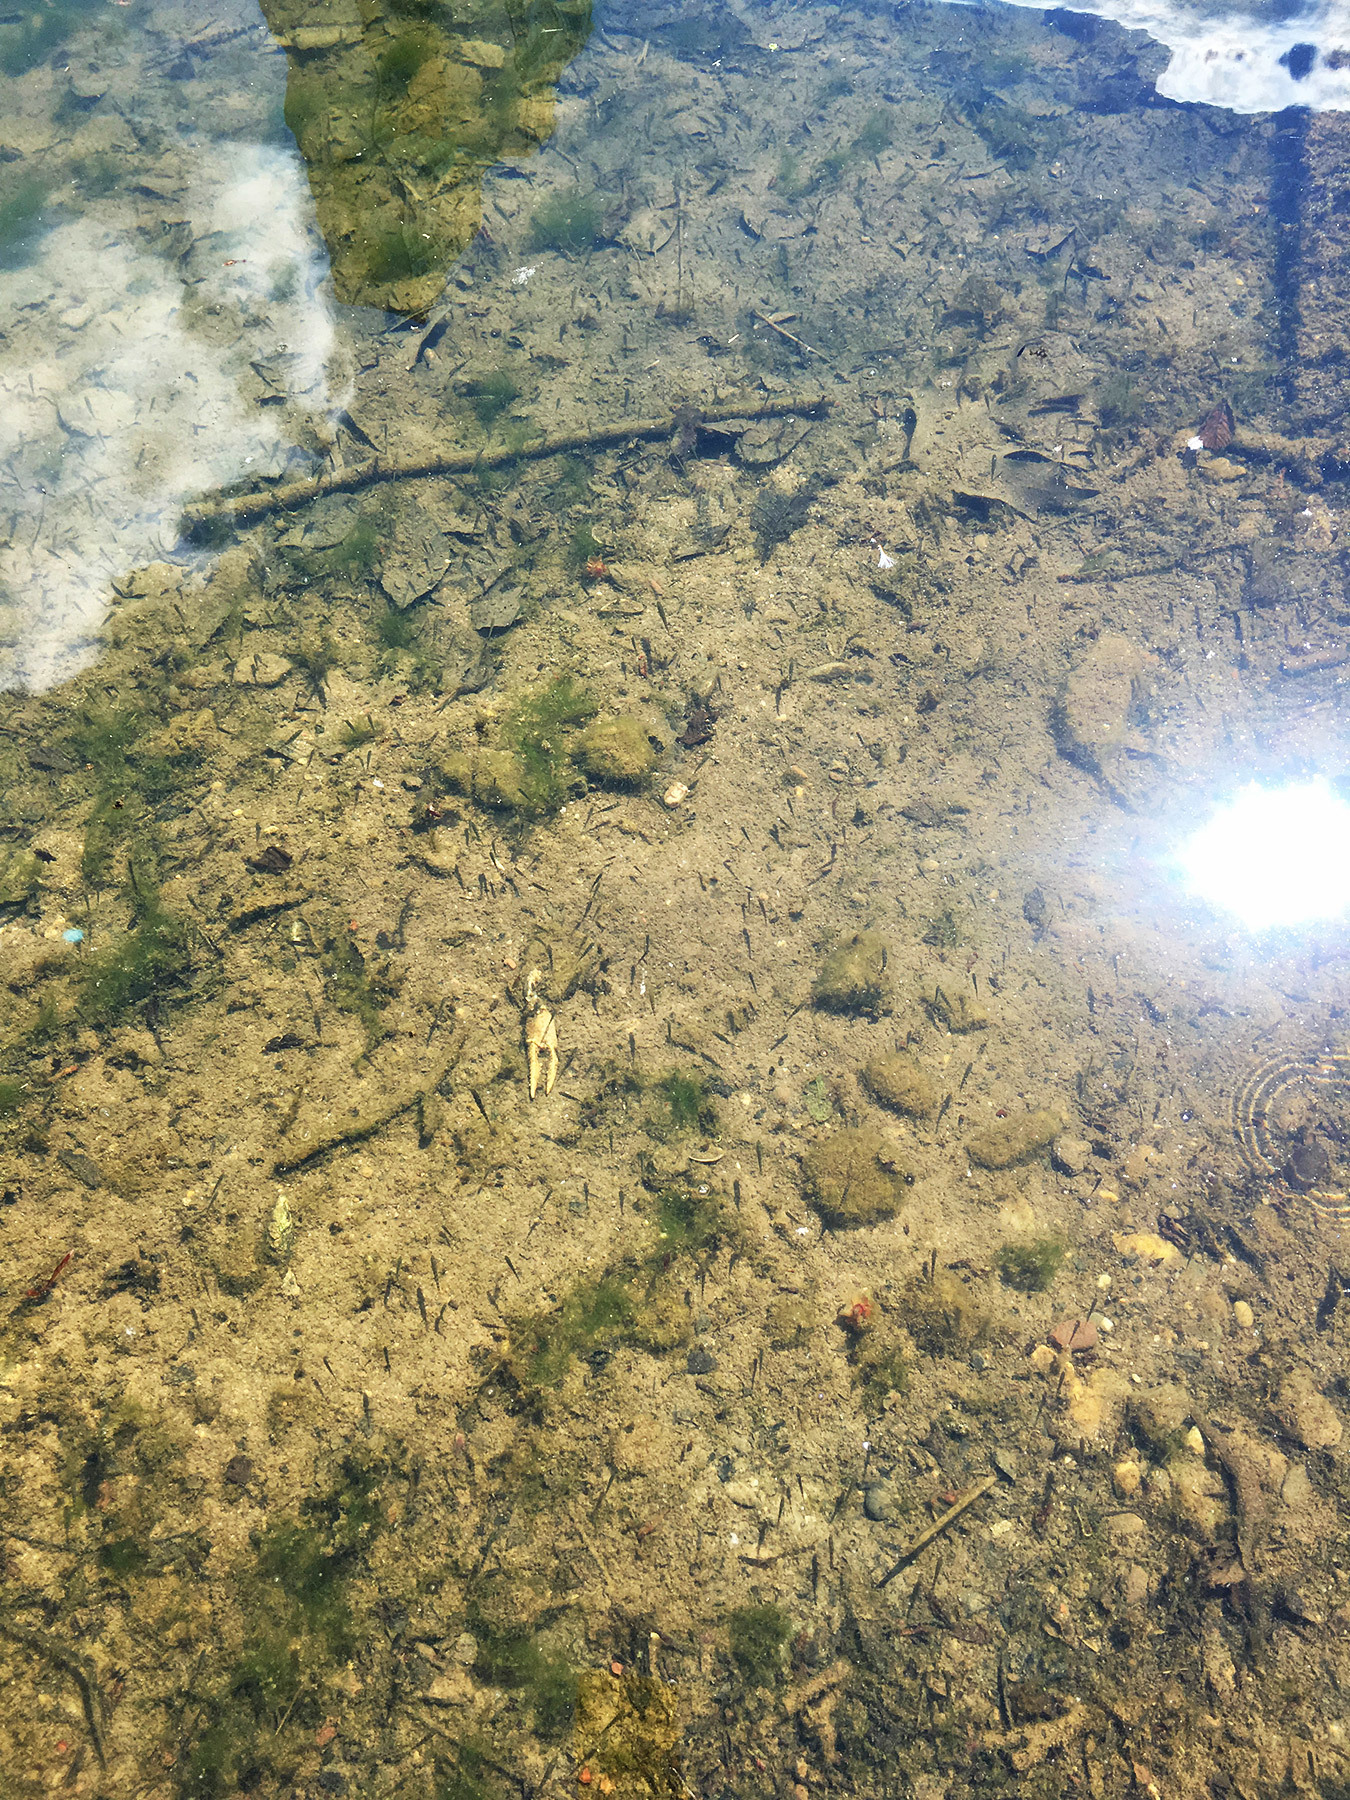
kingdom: Animalia
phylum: Chordata
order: Gasterosteiformes
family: Gasterosteidae
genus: Gasterosteus
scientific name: Gasterosteus aculeatus
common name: Three-spined stickleback
